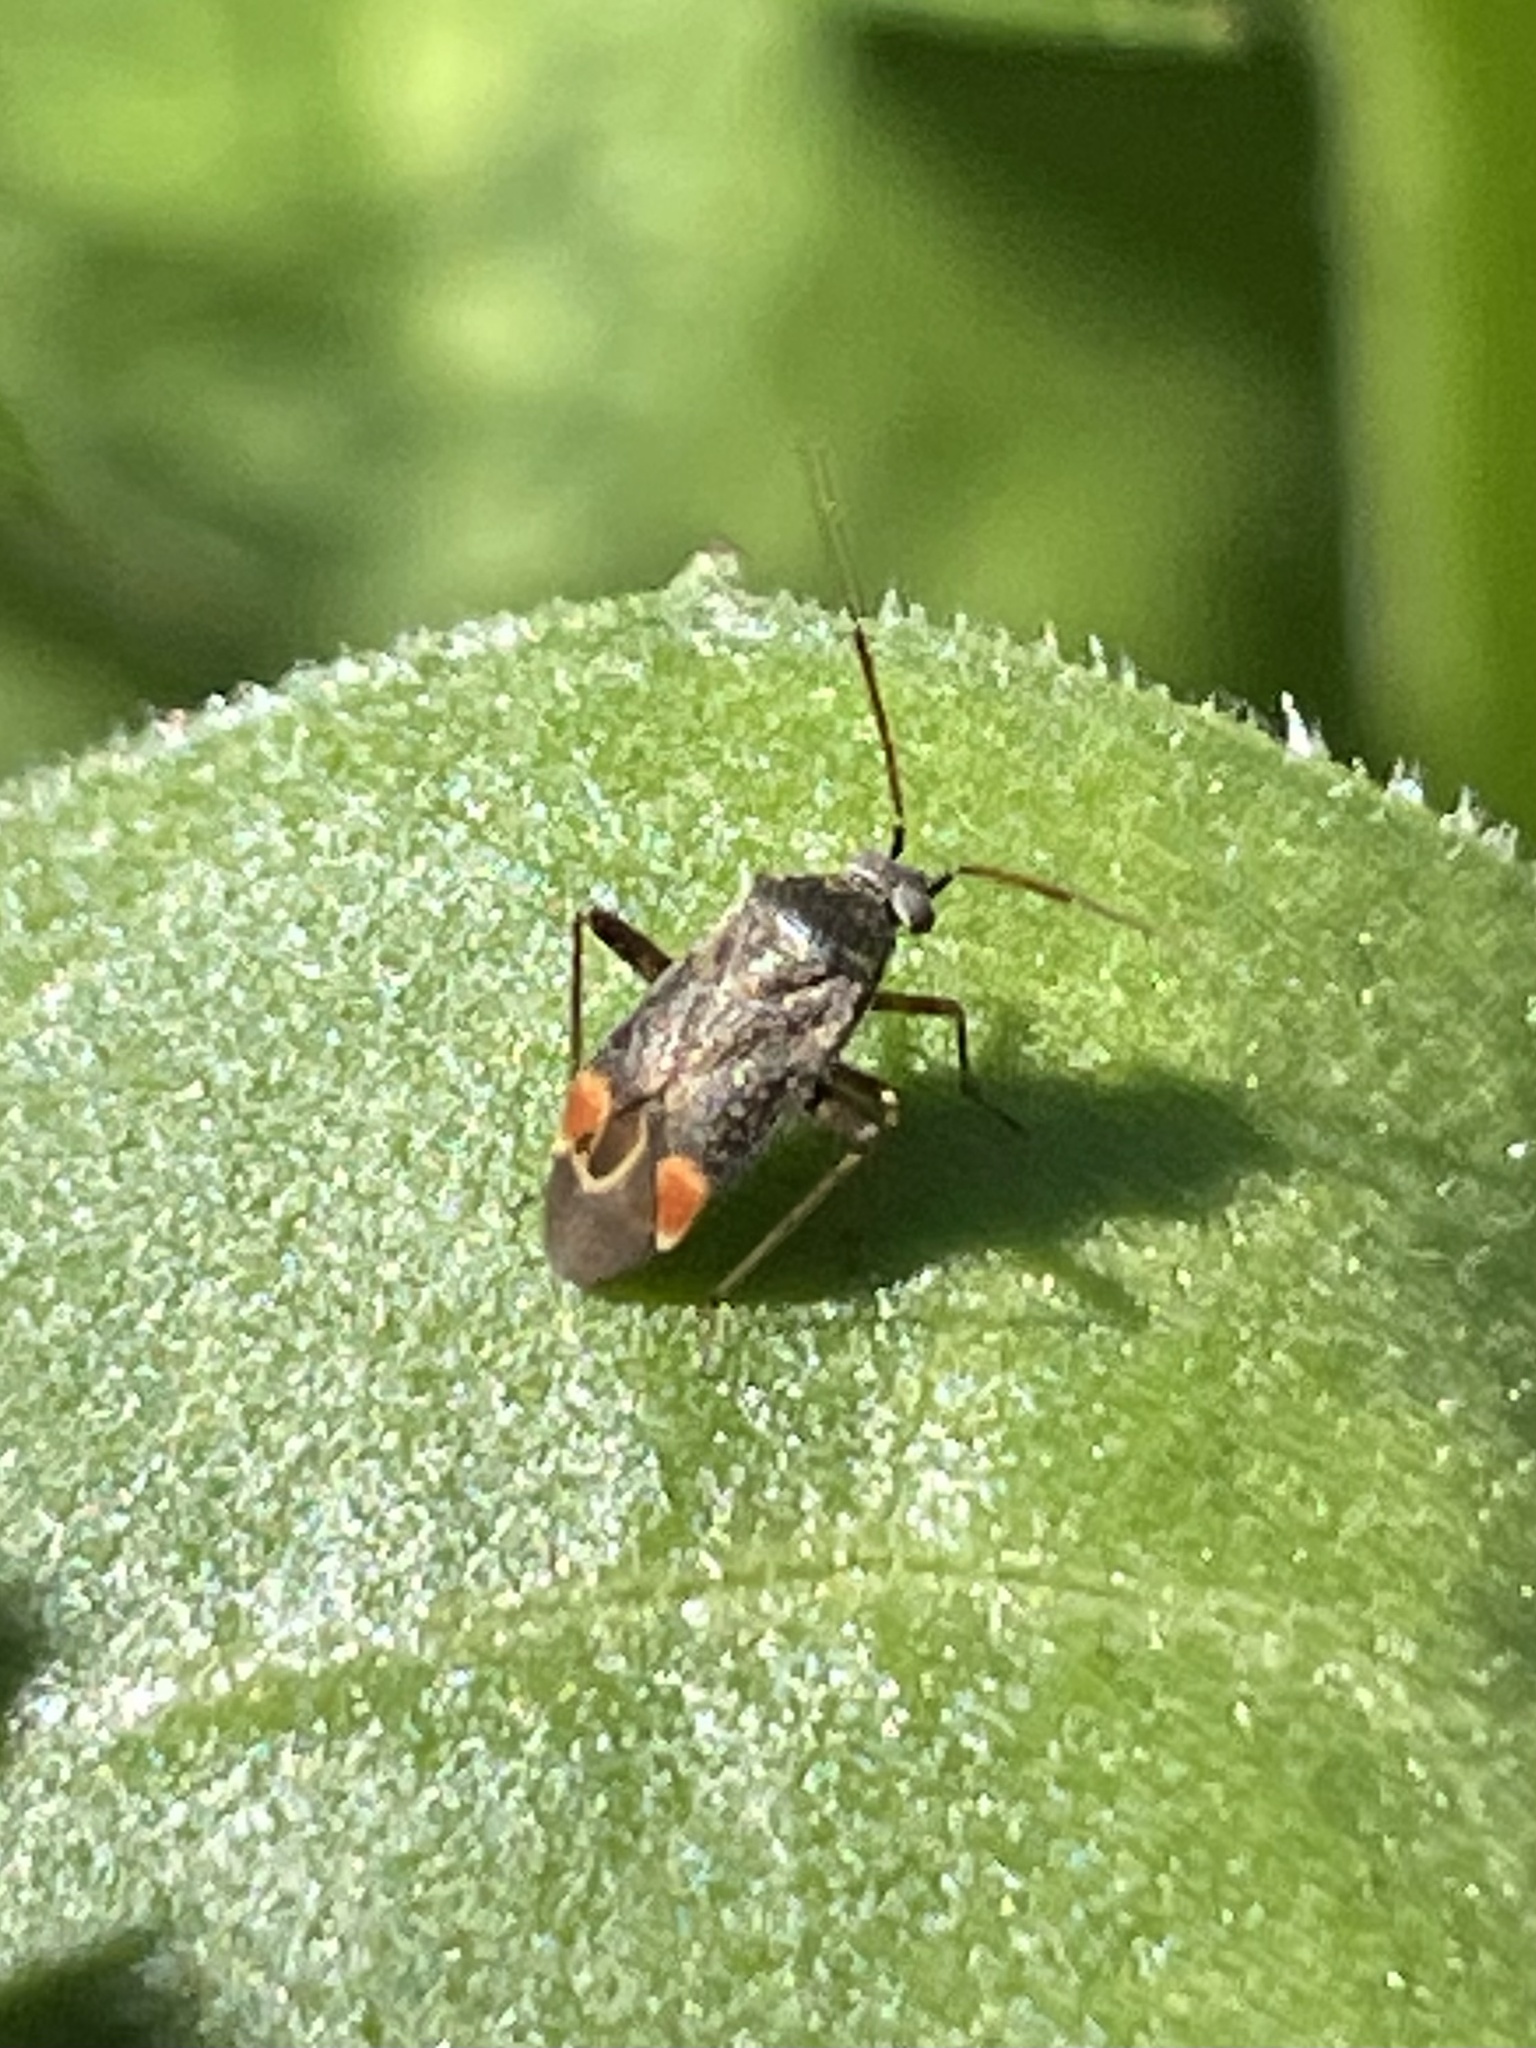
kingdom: Animalia
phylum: Arthropoda
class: Insecta
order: Hemiptera
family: Miridae
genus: Polymerus
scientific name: Polymerus basalis
